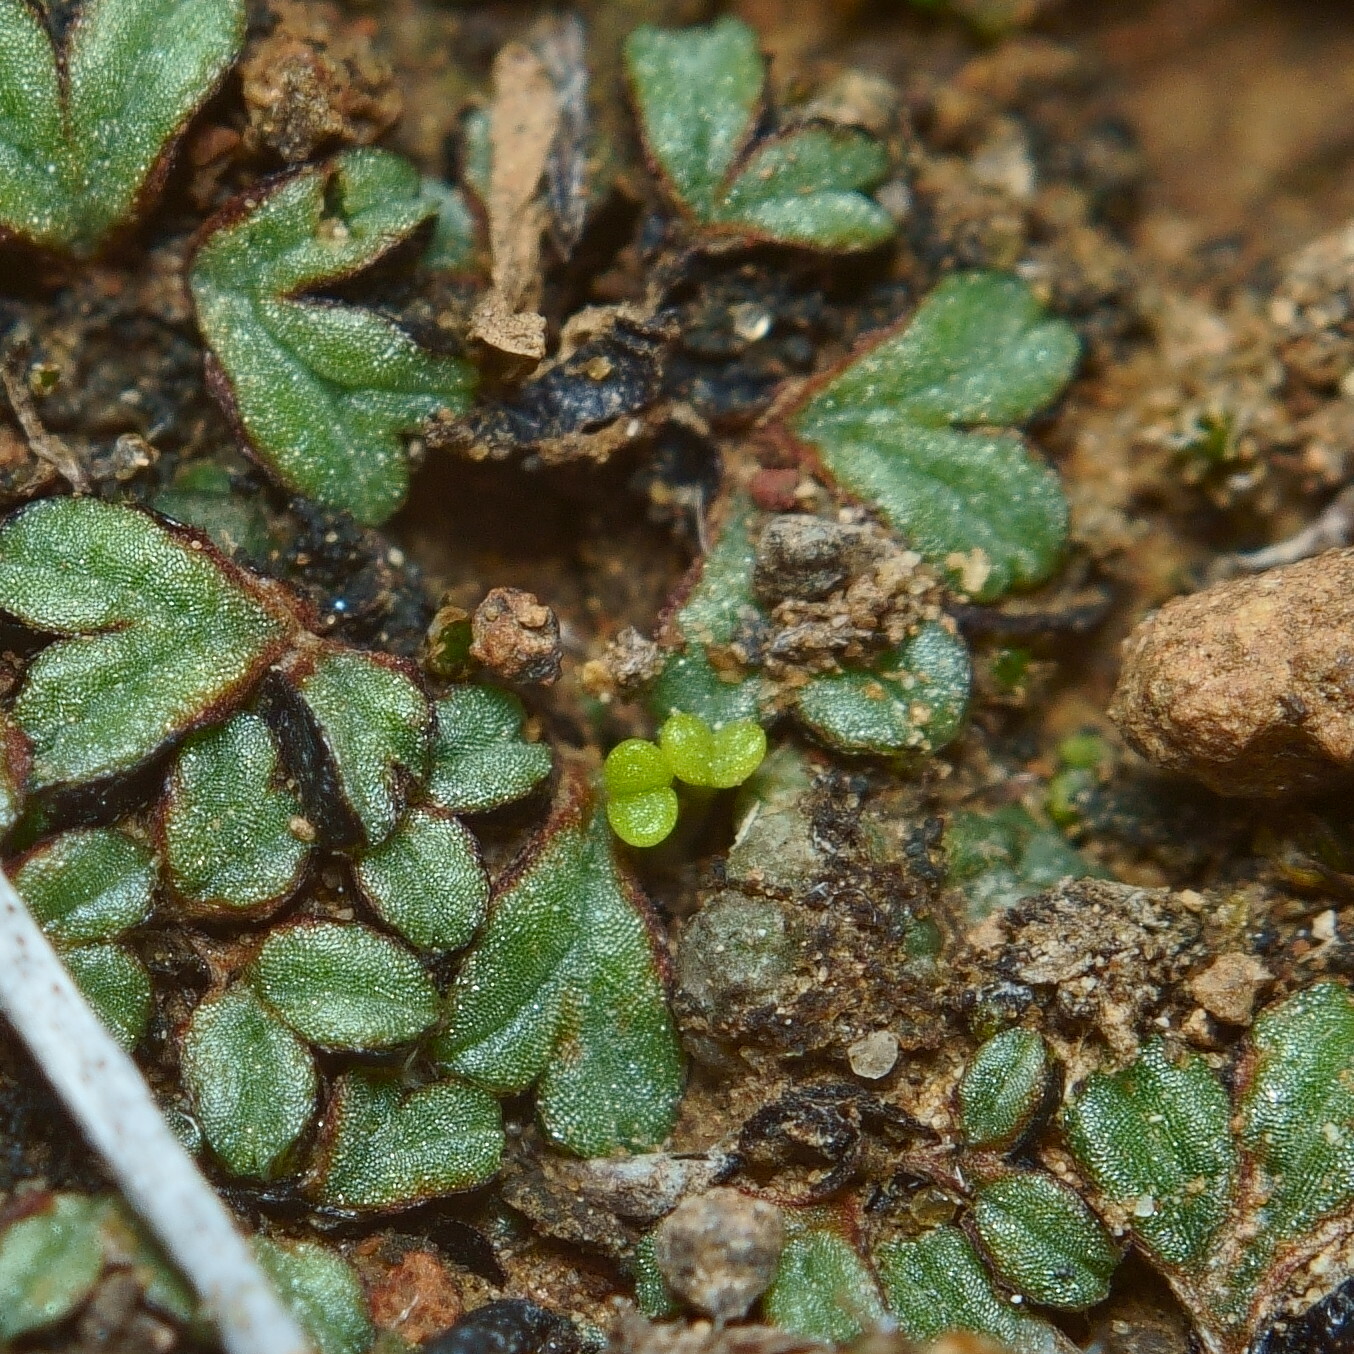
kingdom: Plantae
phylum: Tracheophyta
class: Magnoliopsida
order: Saxifragales
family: Crassulaceae
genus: Dudleya
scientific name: Dudleya parva
